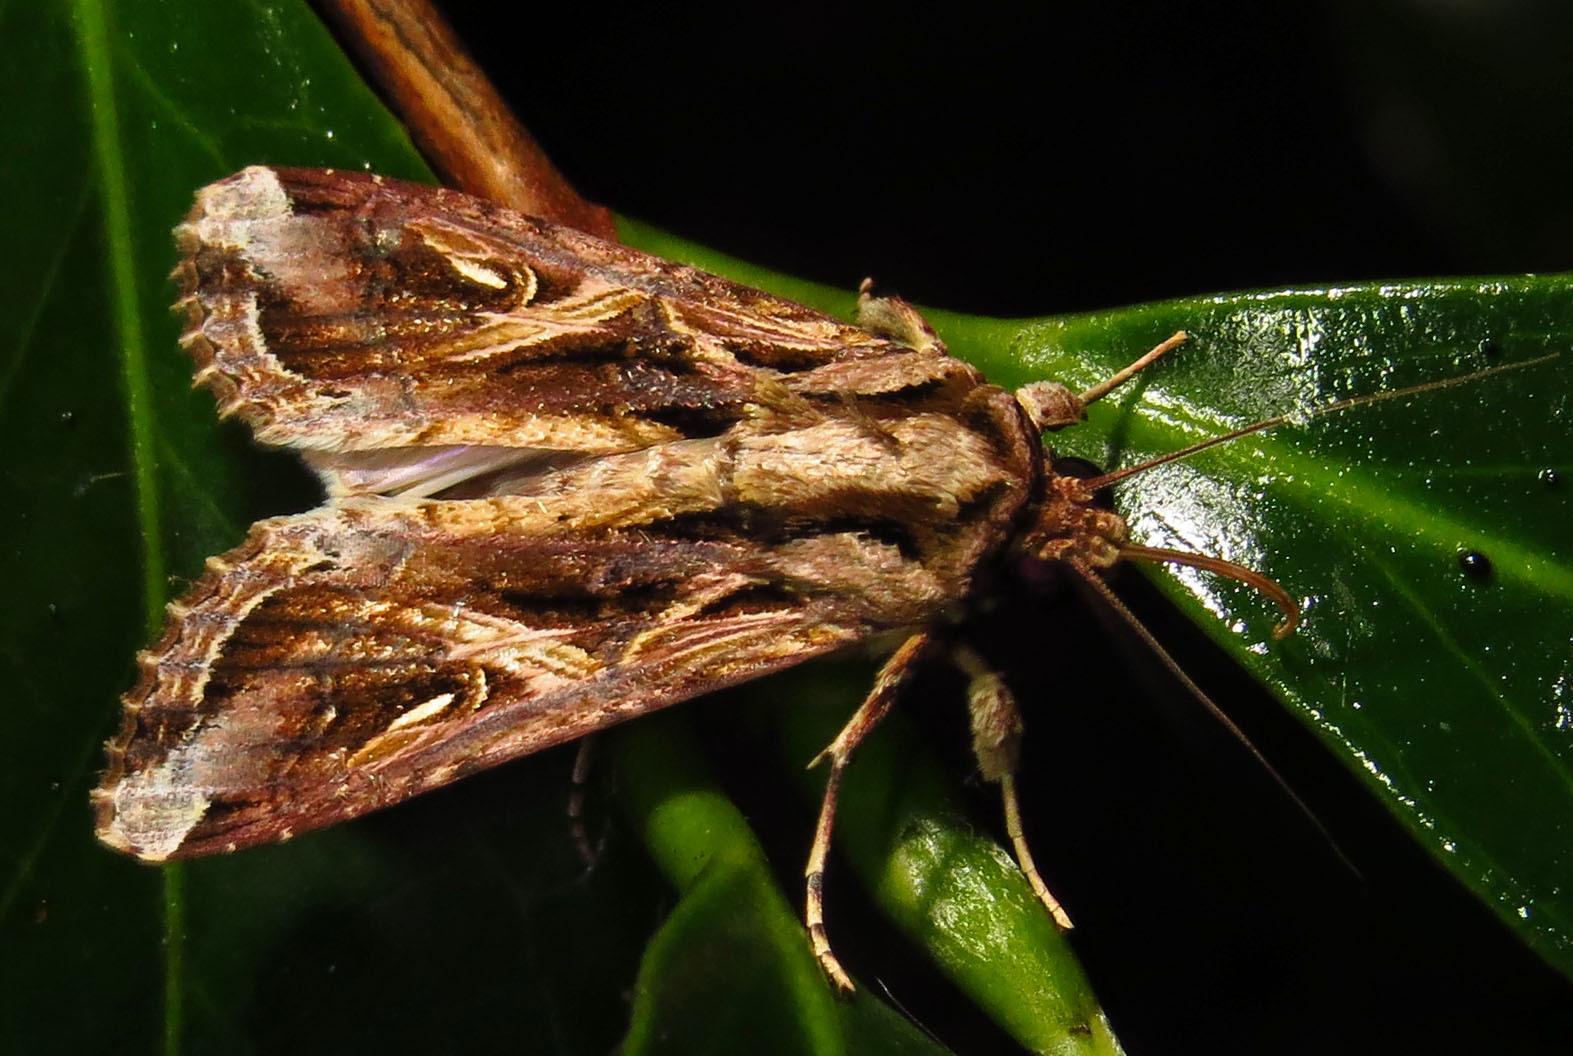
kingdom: Animalia
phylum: Arthropoda
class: Insecta
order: Lepidoptera
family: Noctuidae
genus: Spodoptera
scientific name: Spodoptera dolichos
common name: Sweetpotato armyworm
